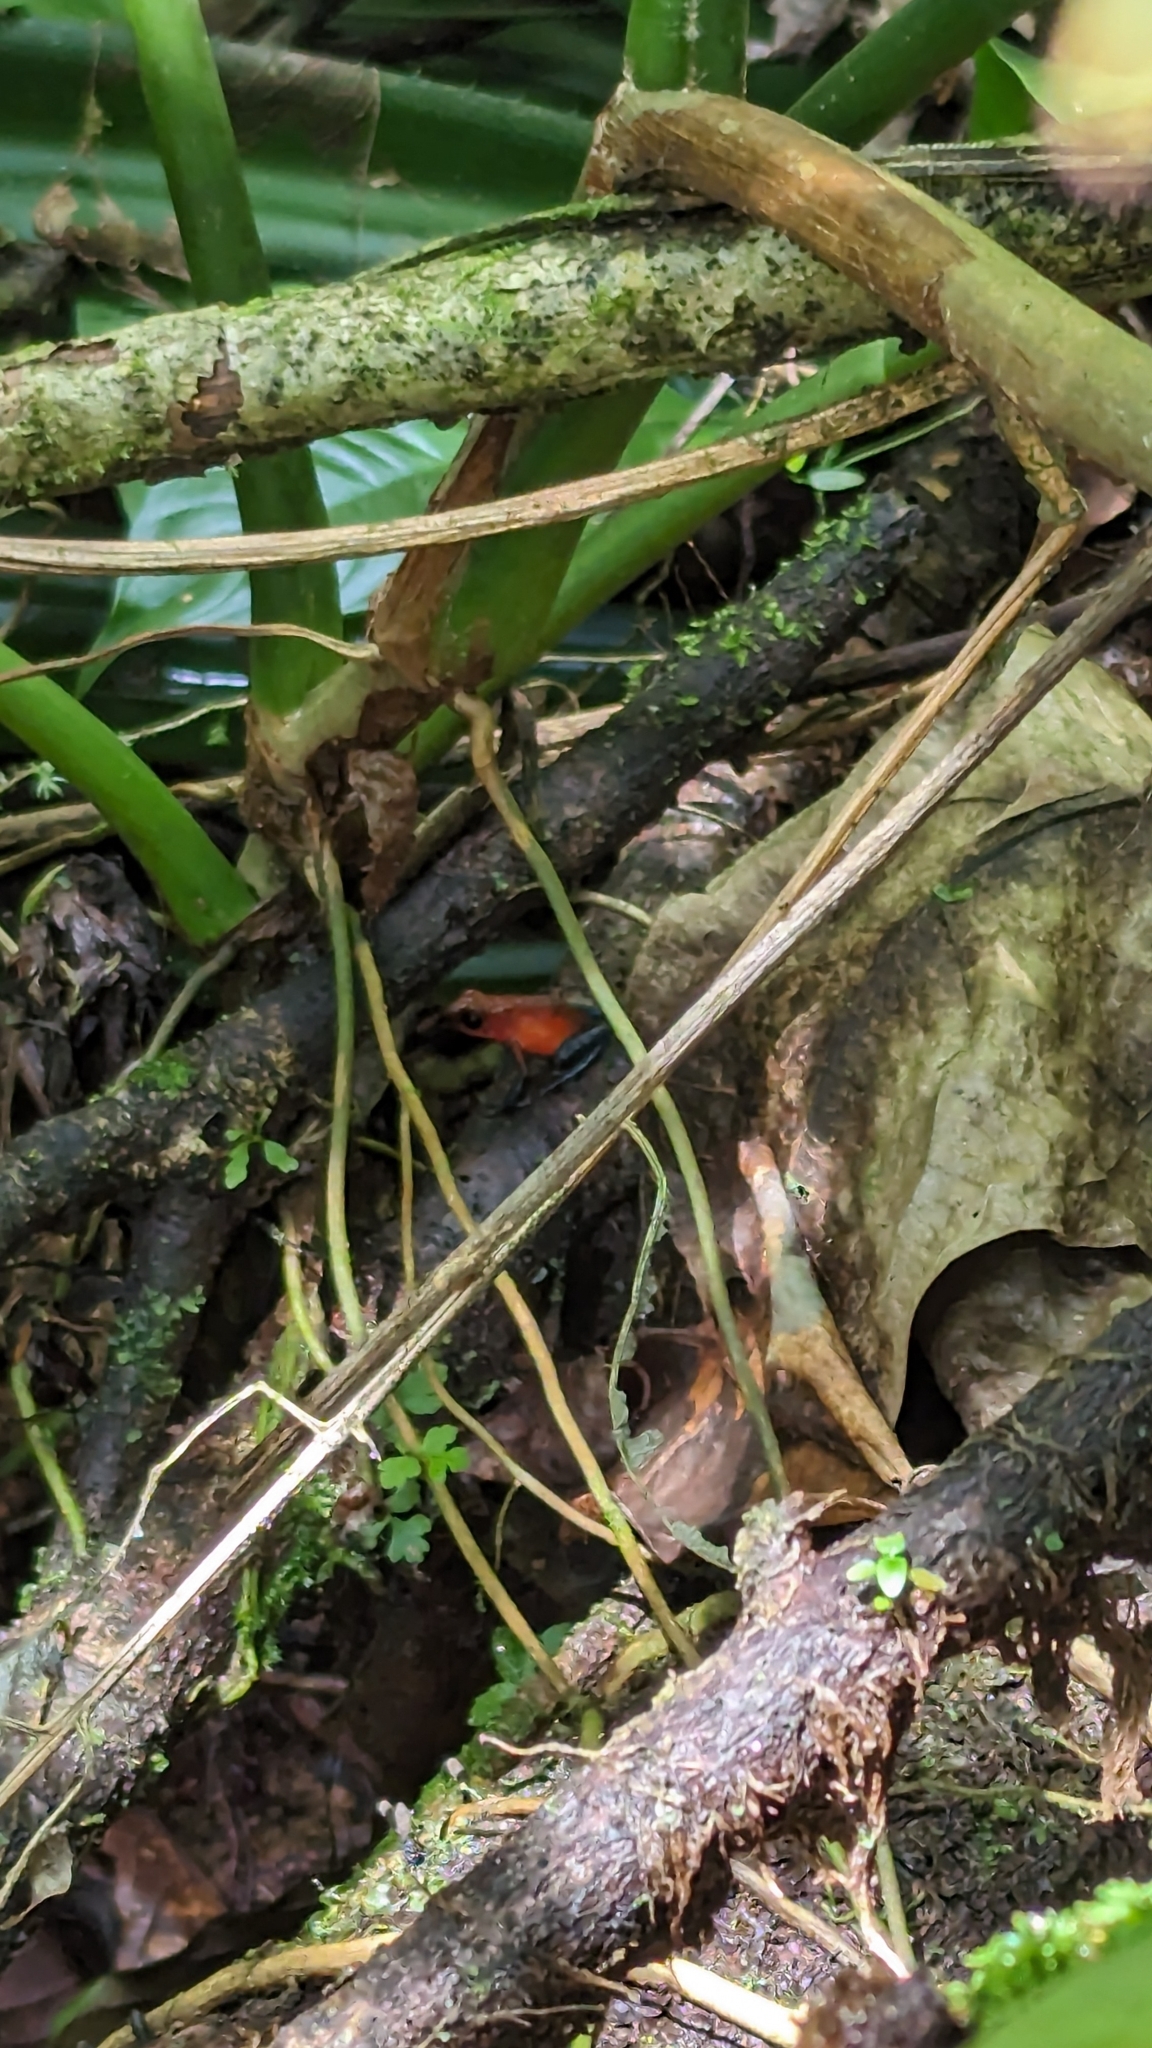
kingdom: Animalia
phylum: Chordata
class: Amphibia
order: Anura
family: Dendrobatidae
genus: Oophaga
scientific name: Oophaga pumilio
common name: Flaming poison frog
